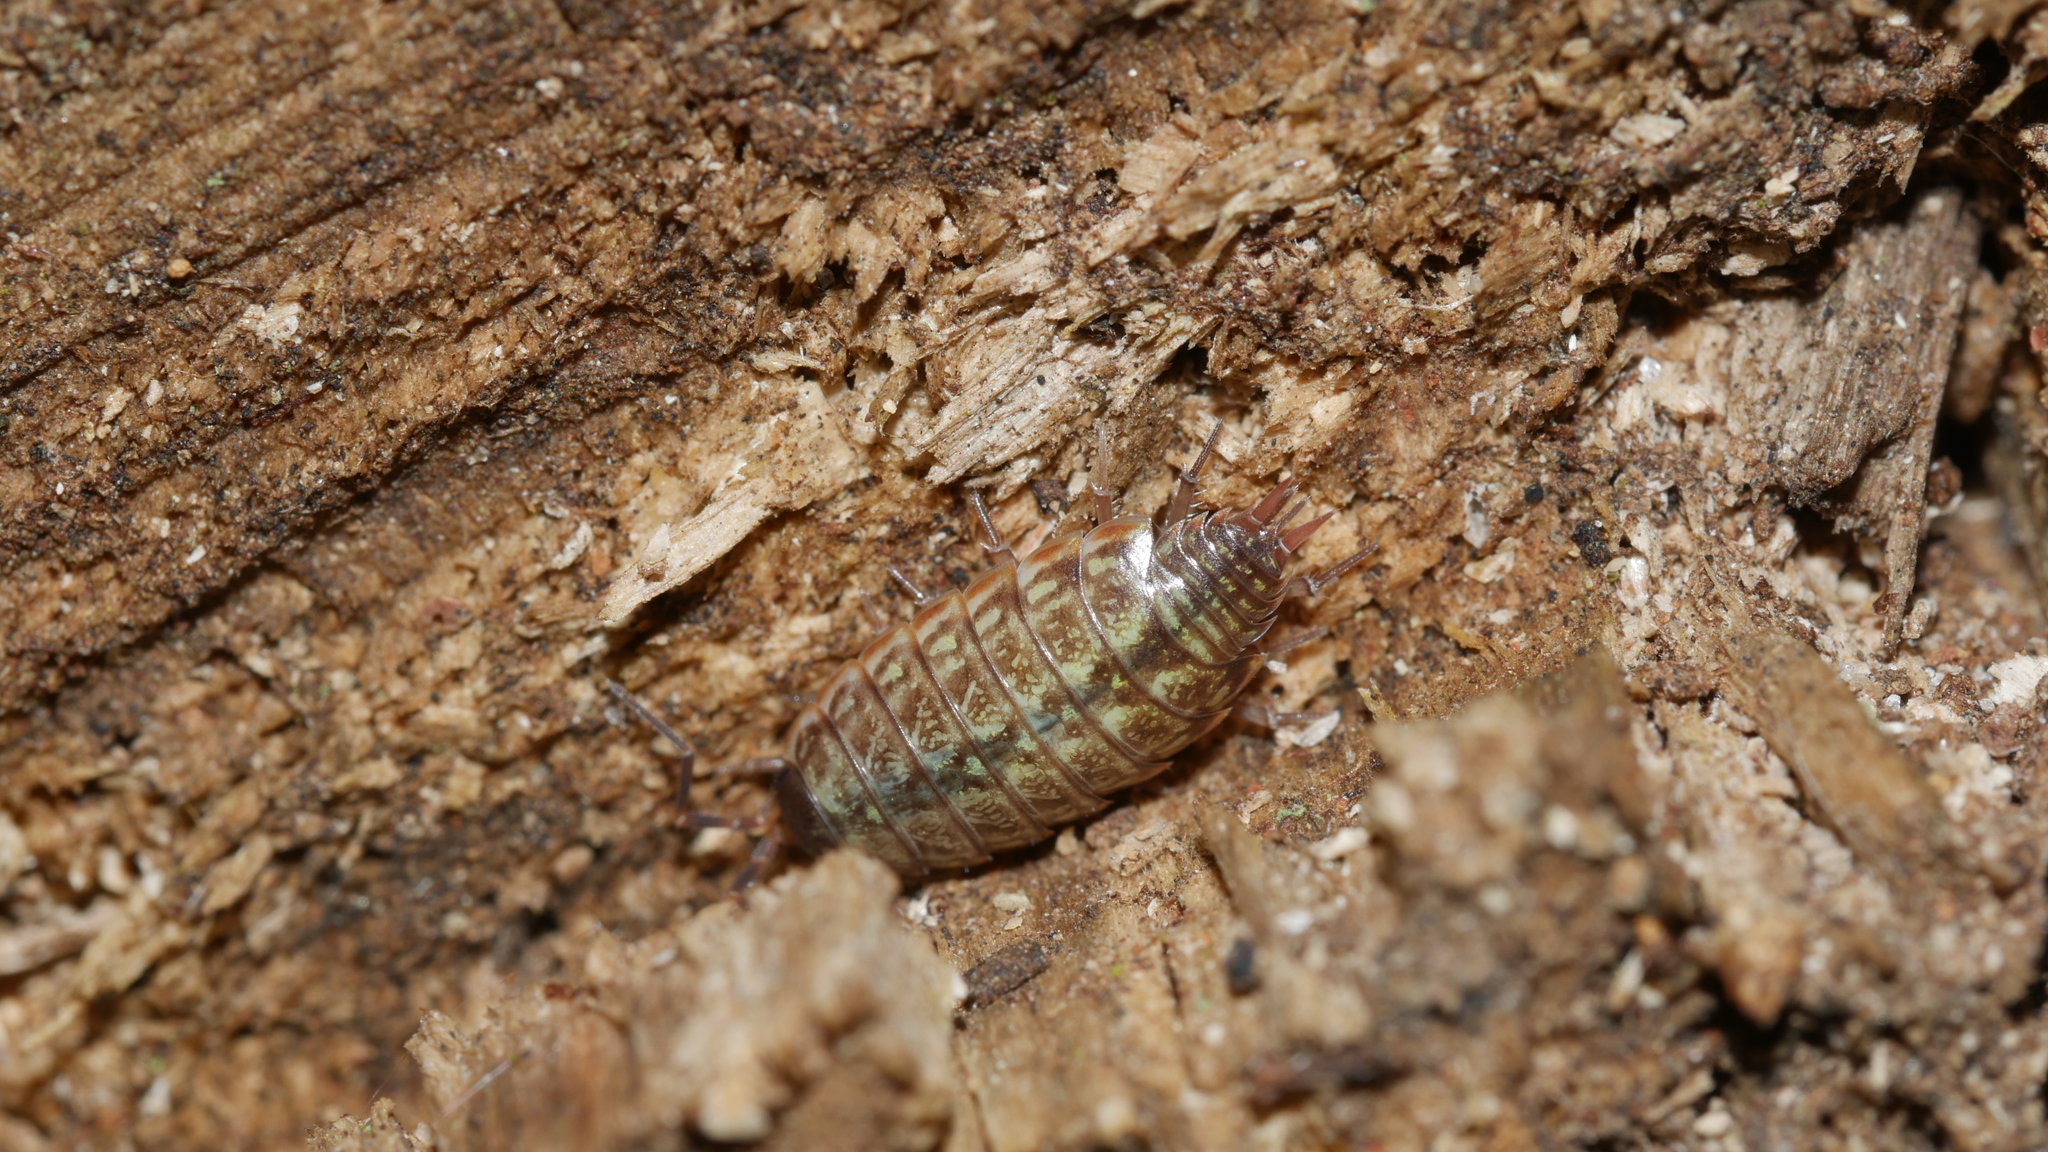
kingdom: Animalia
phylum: Arthropoda
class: Malacostraca
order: Isopoda
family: Philosciidae
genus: Philoscia
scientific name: Philoscia muscorum
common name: Common striped woodlouse
